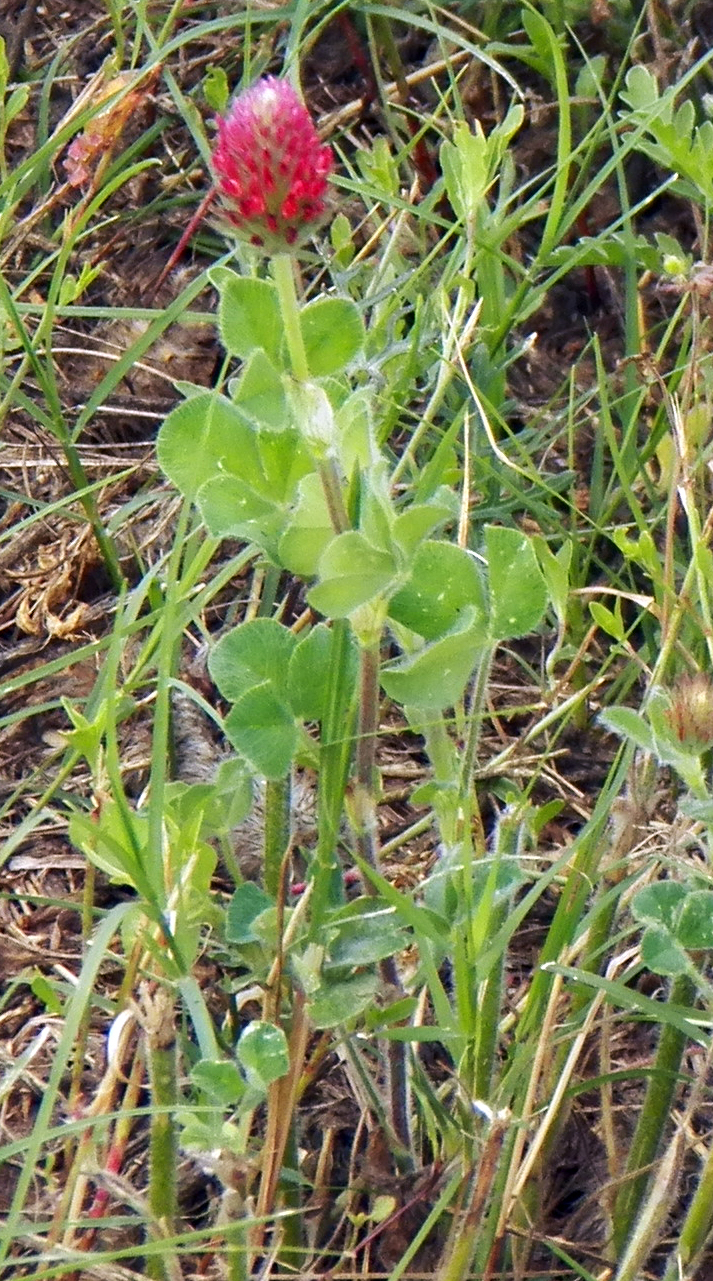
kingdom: Plantae
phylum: Tracheophyta
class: Magnoliopsida
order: Fabales
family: Fabaceae
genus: Trifolium
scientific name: Trifolium incarnatum
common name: Crimson clover
